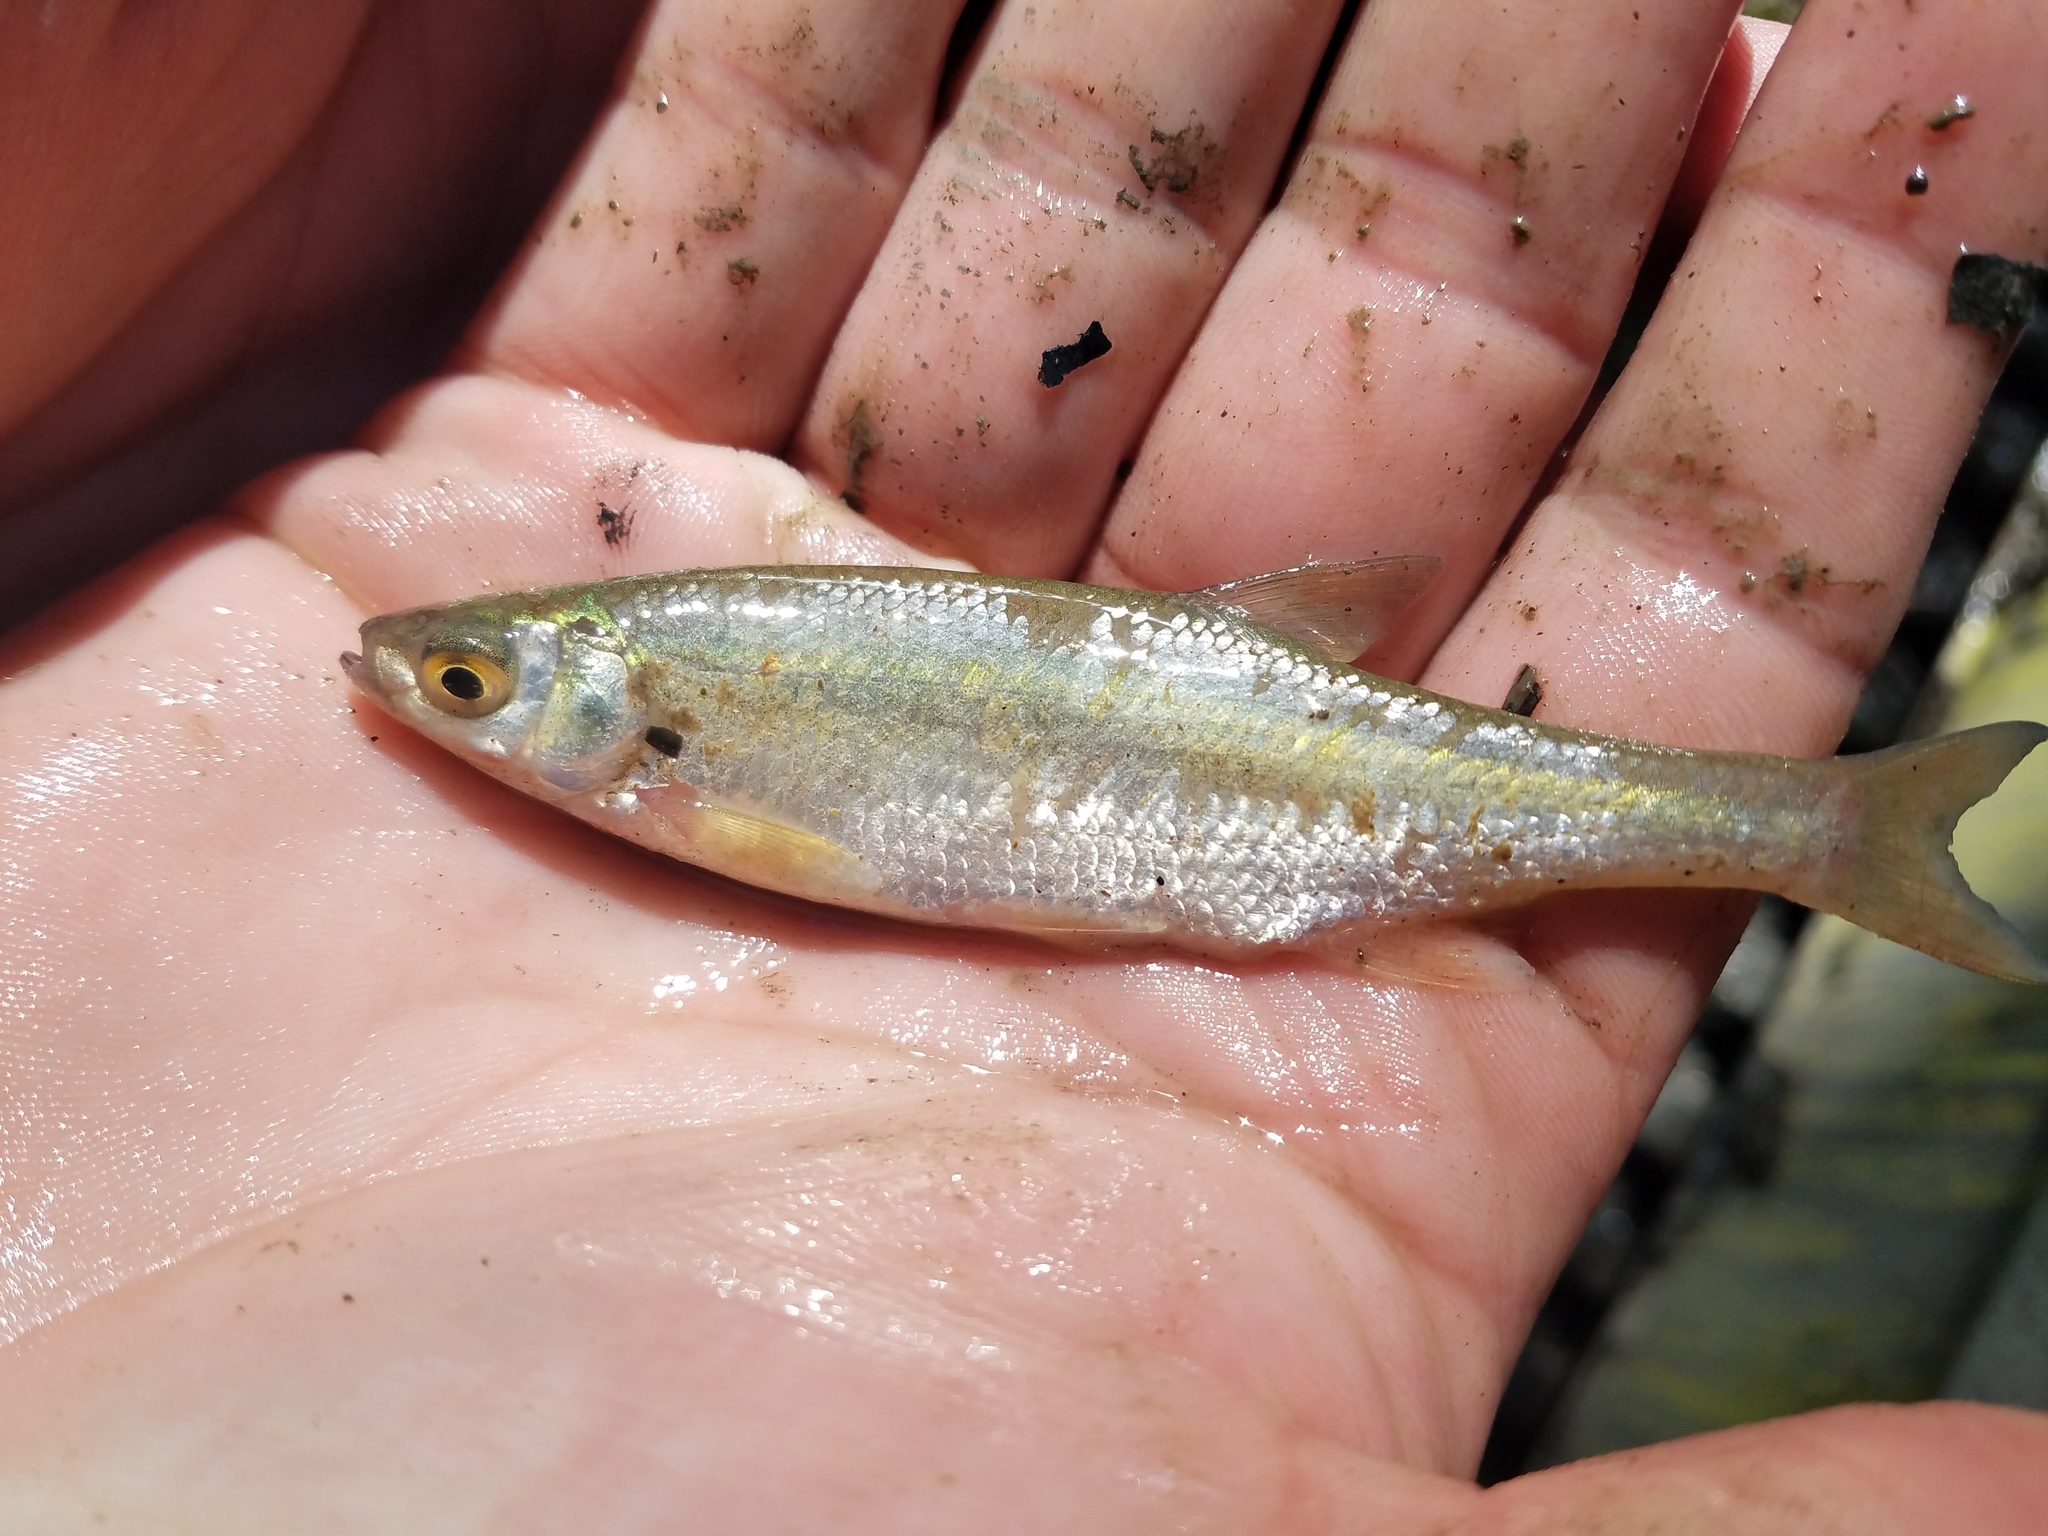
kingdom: Animalia
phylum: Chordata
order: Cypriniformes
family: Cyprinidae
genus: Notemigonus
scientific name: Notemigonus crysoleucas
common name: Golden shiner
